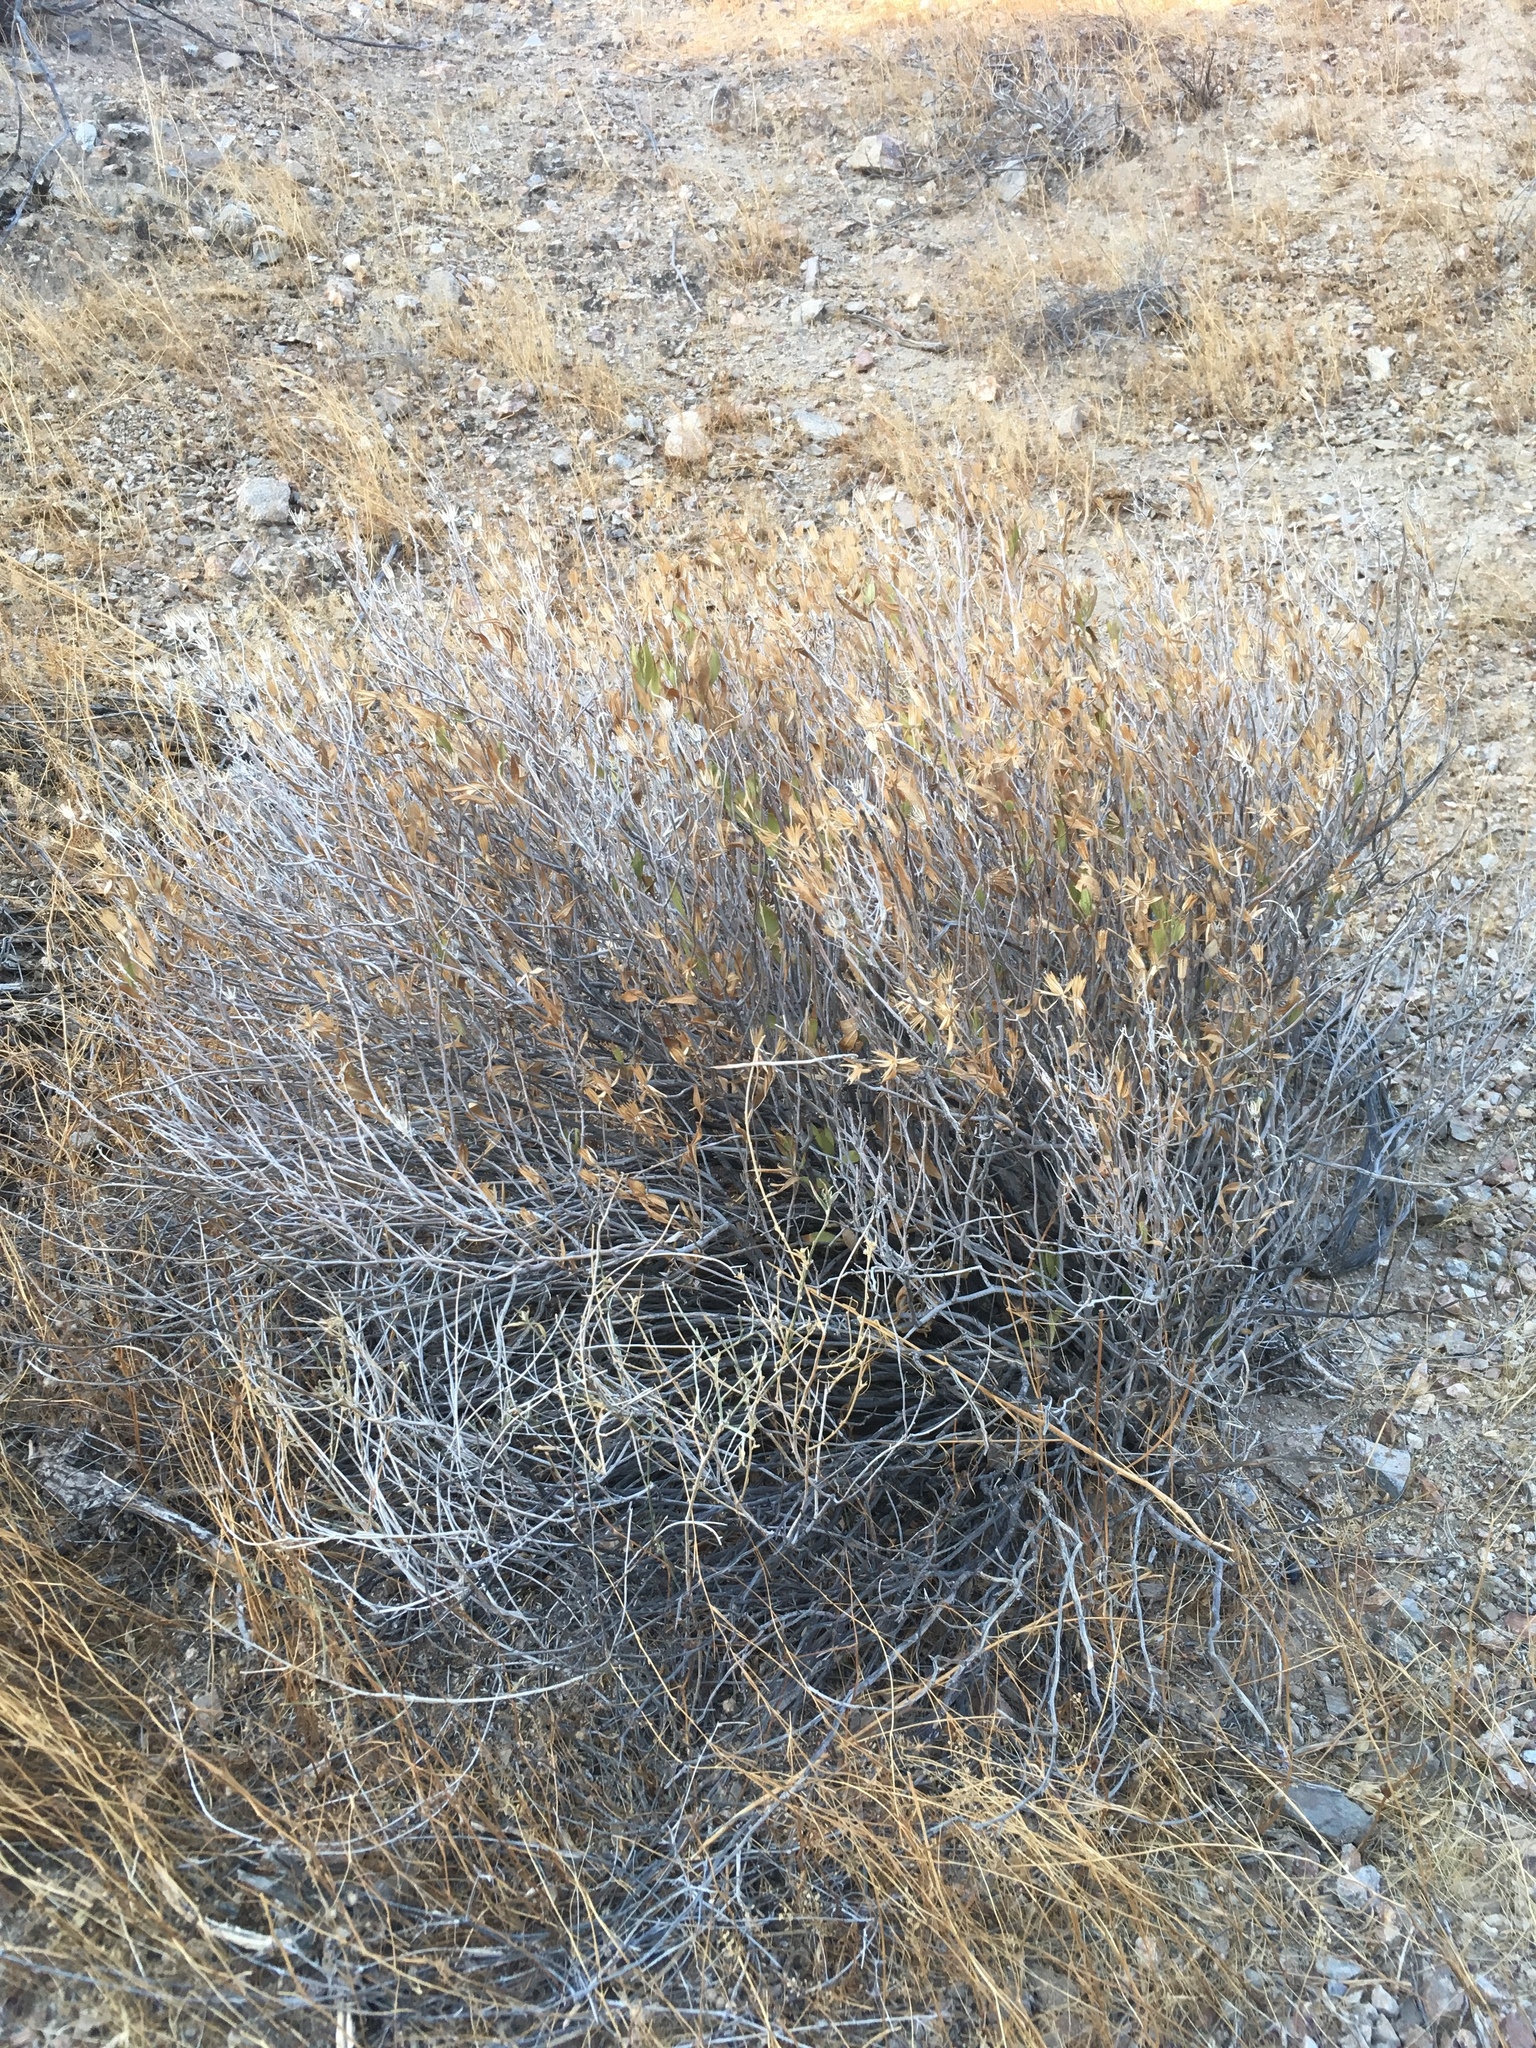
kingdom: Plantae
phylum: Tracheophyta
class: Magnoliopsida
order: Asterales
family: Asteraceae
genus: Trixis
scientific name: Trixis californica
